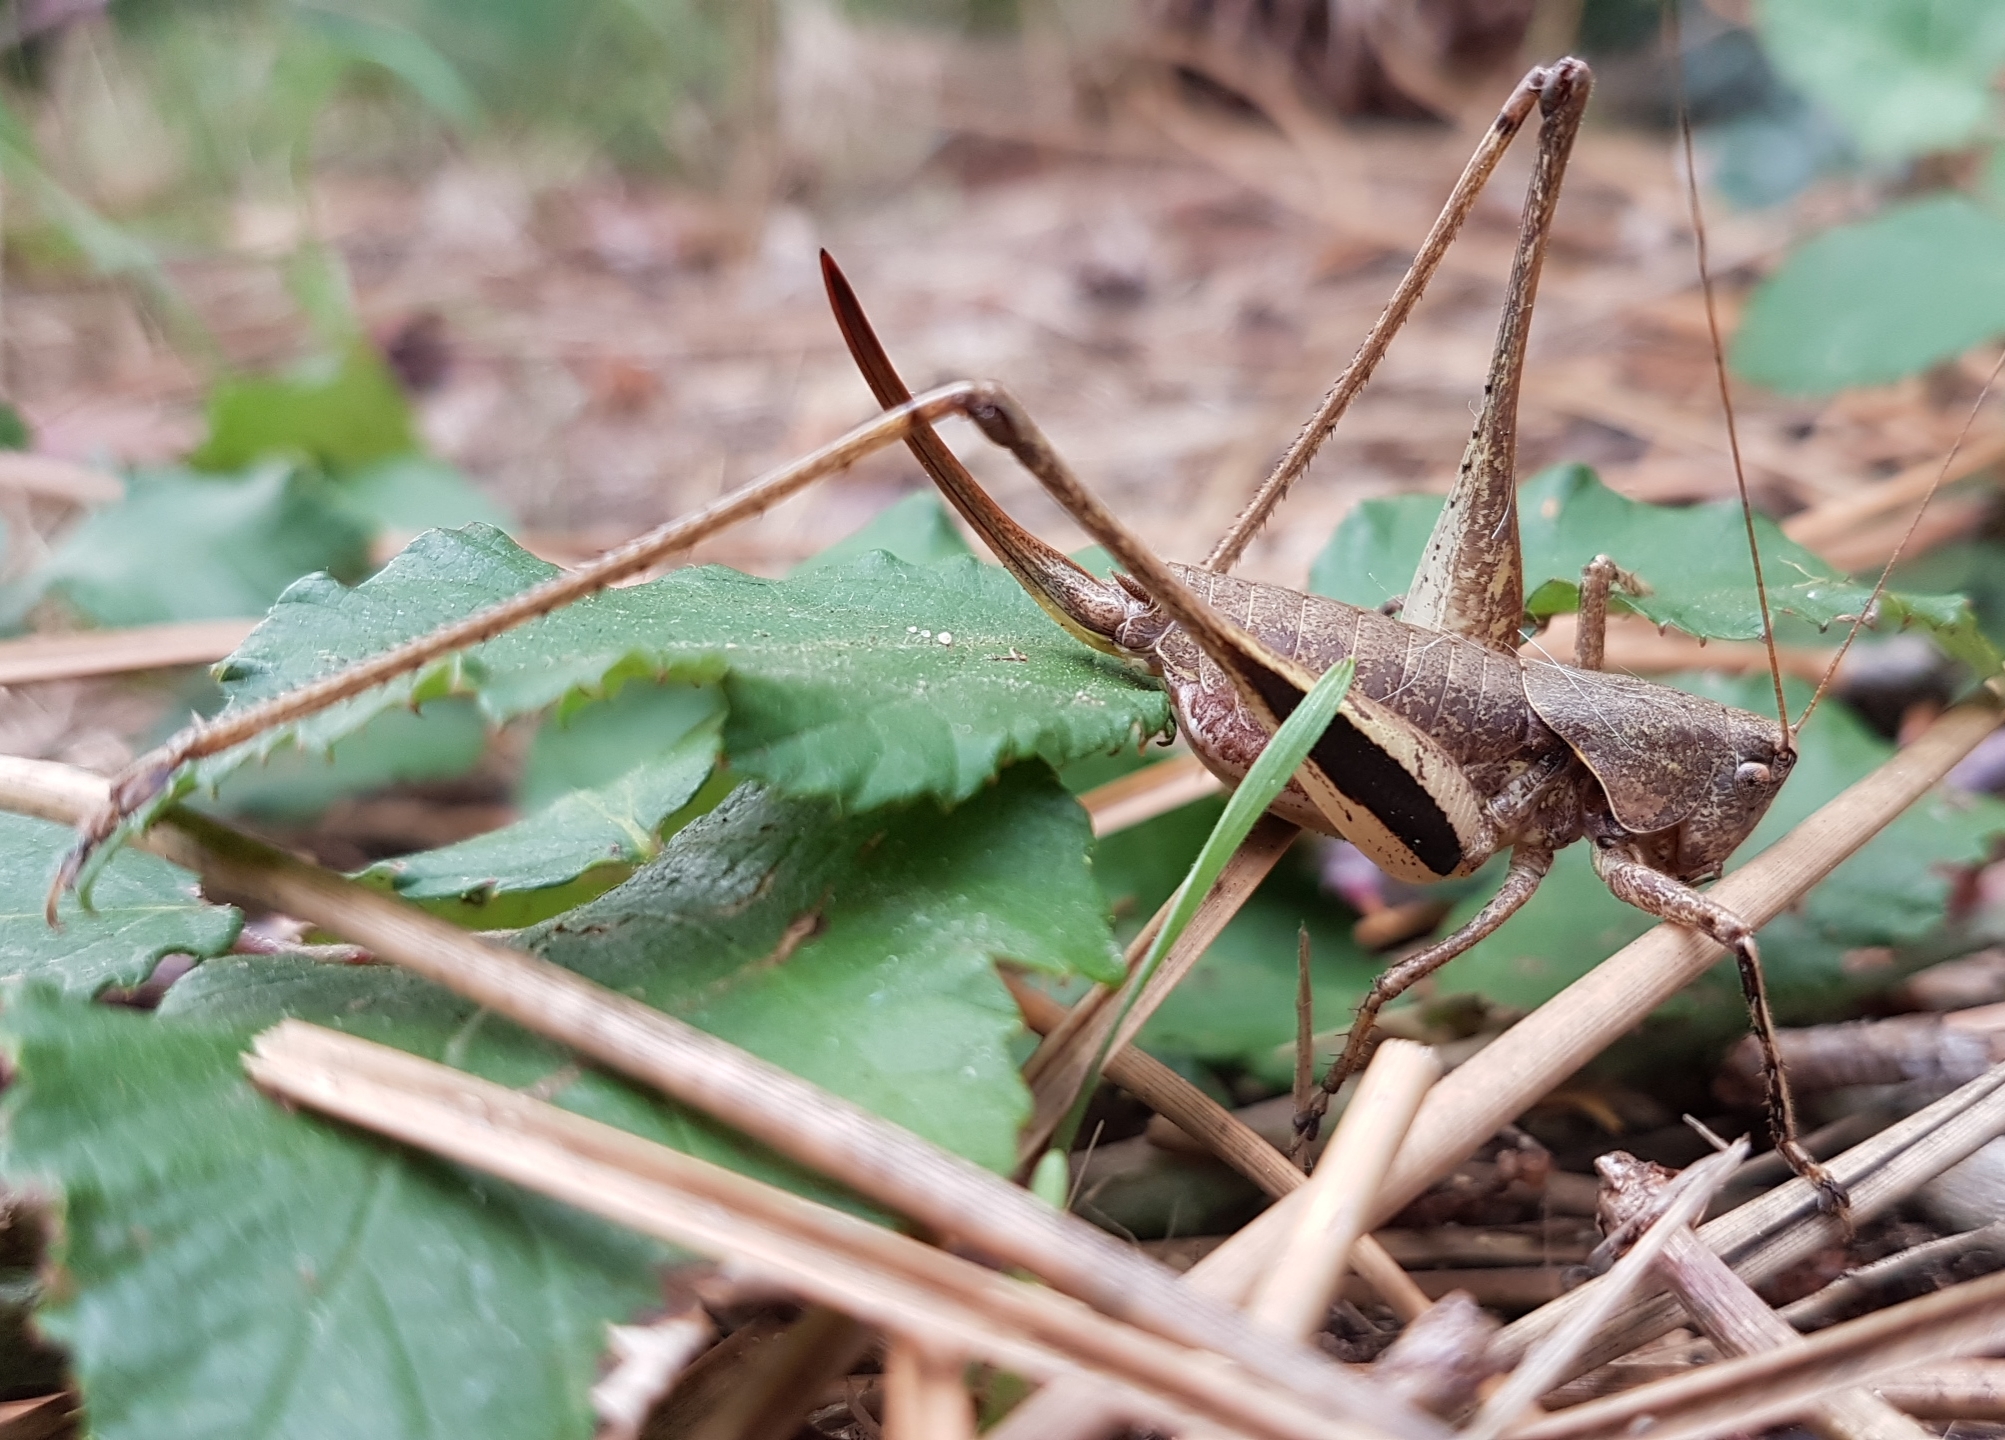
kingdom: Animalia
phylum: Arthropoda
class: Insecta
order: Orthoptera
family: Tettigoniidae
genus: Rhacocleis
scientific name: Rhacocleis poneli
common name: Ponel's bush-cricket
